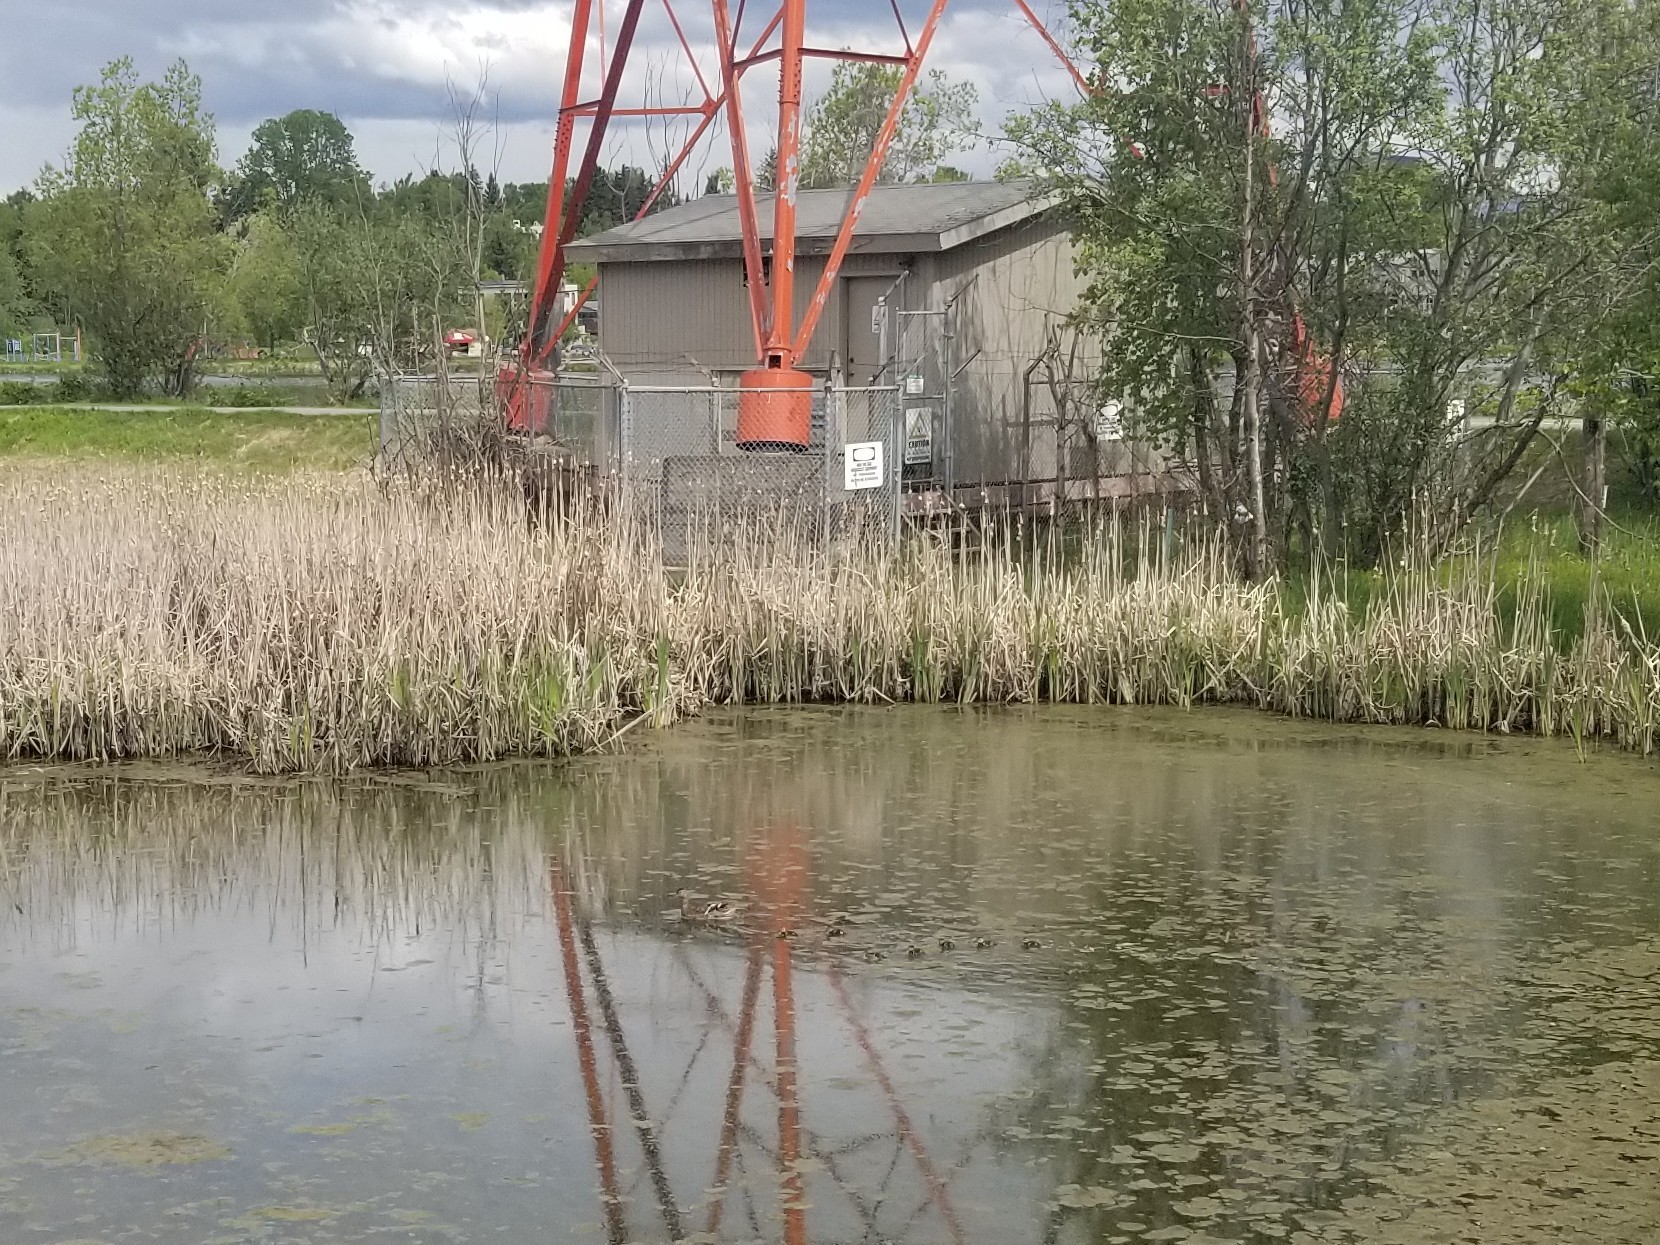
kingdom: Animalia
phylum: Chordata
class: Aves
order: Anseriformes
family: Anatidae
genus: Anas
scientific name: Anas platyrhynchos
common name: Mallard
